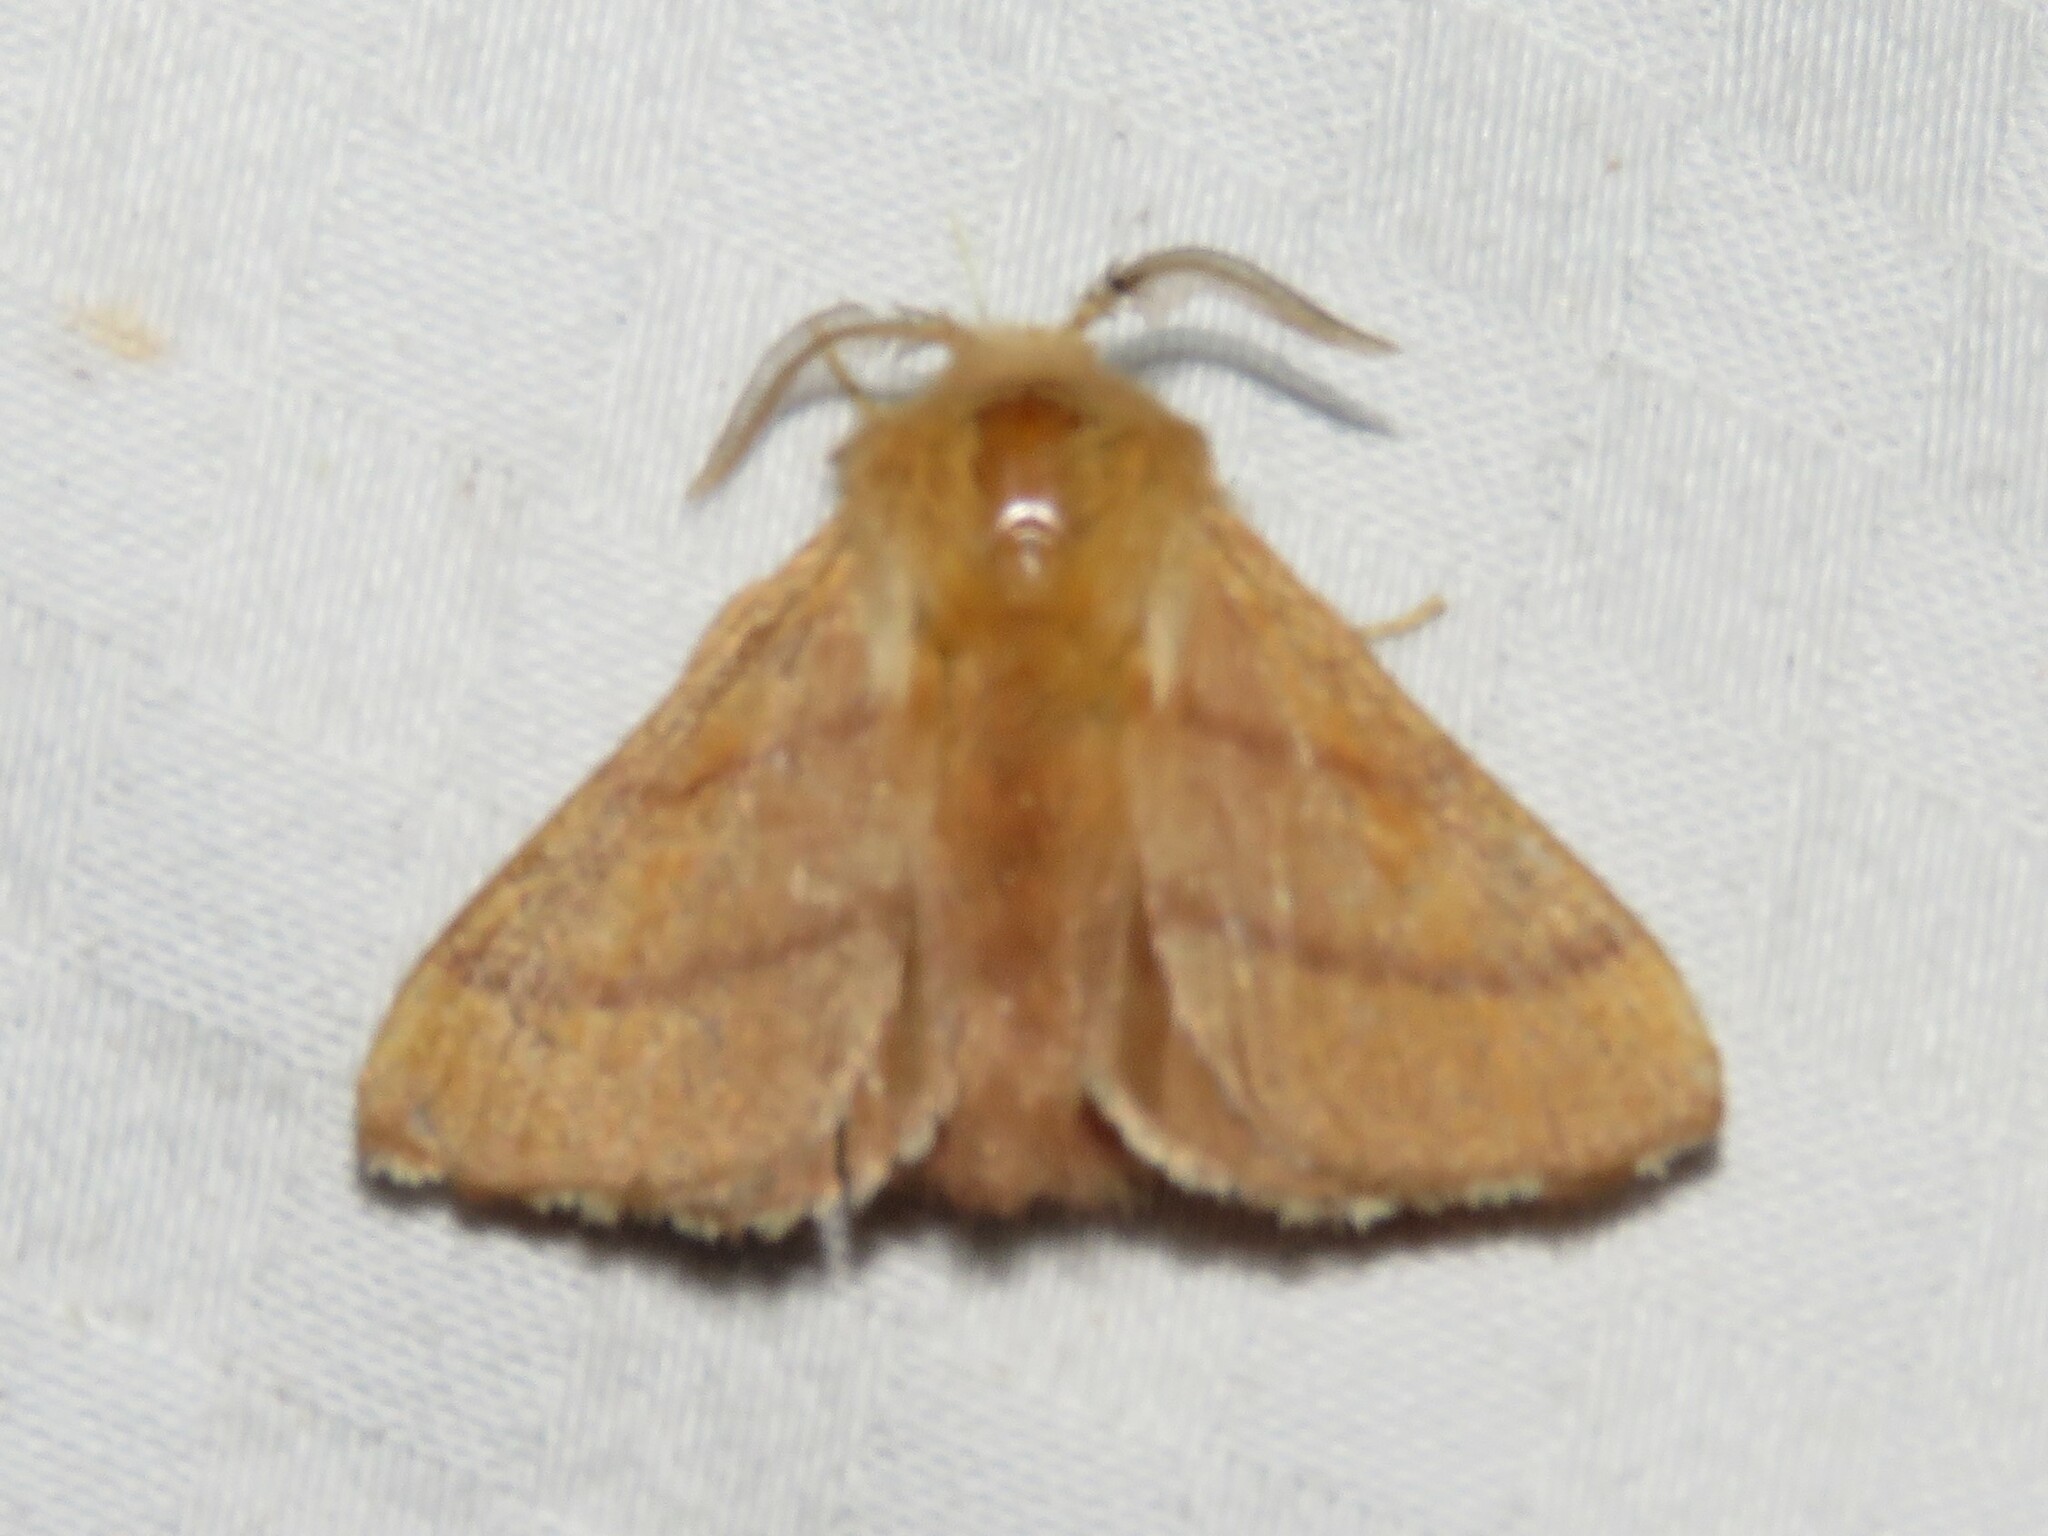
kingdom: Animalia
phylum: Arthropoda
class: Insecta
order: Lepidoptera
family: Lasiocampidae
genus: Malacosoma
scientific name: Malacosoma disstria
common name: Forest tent caterpillar
